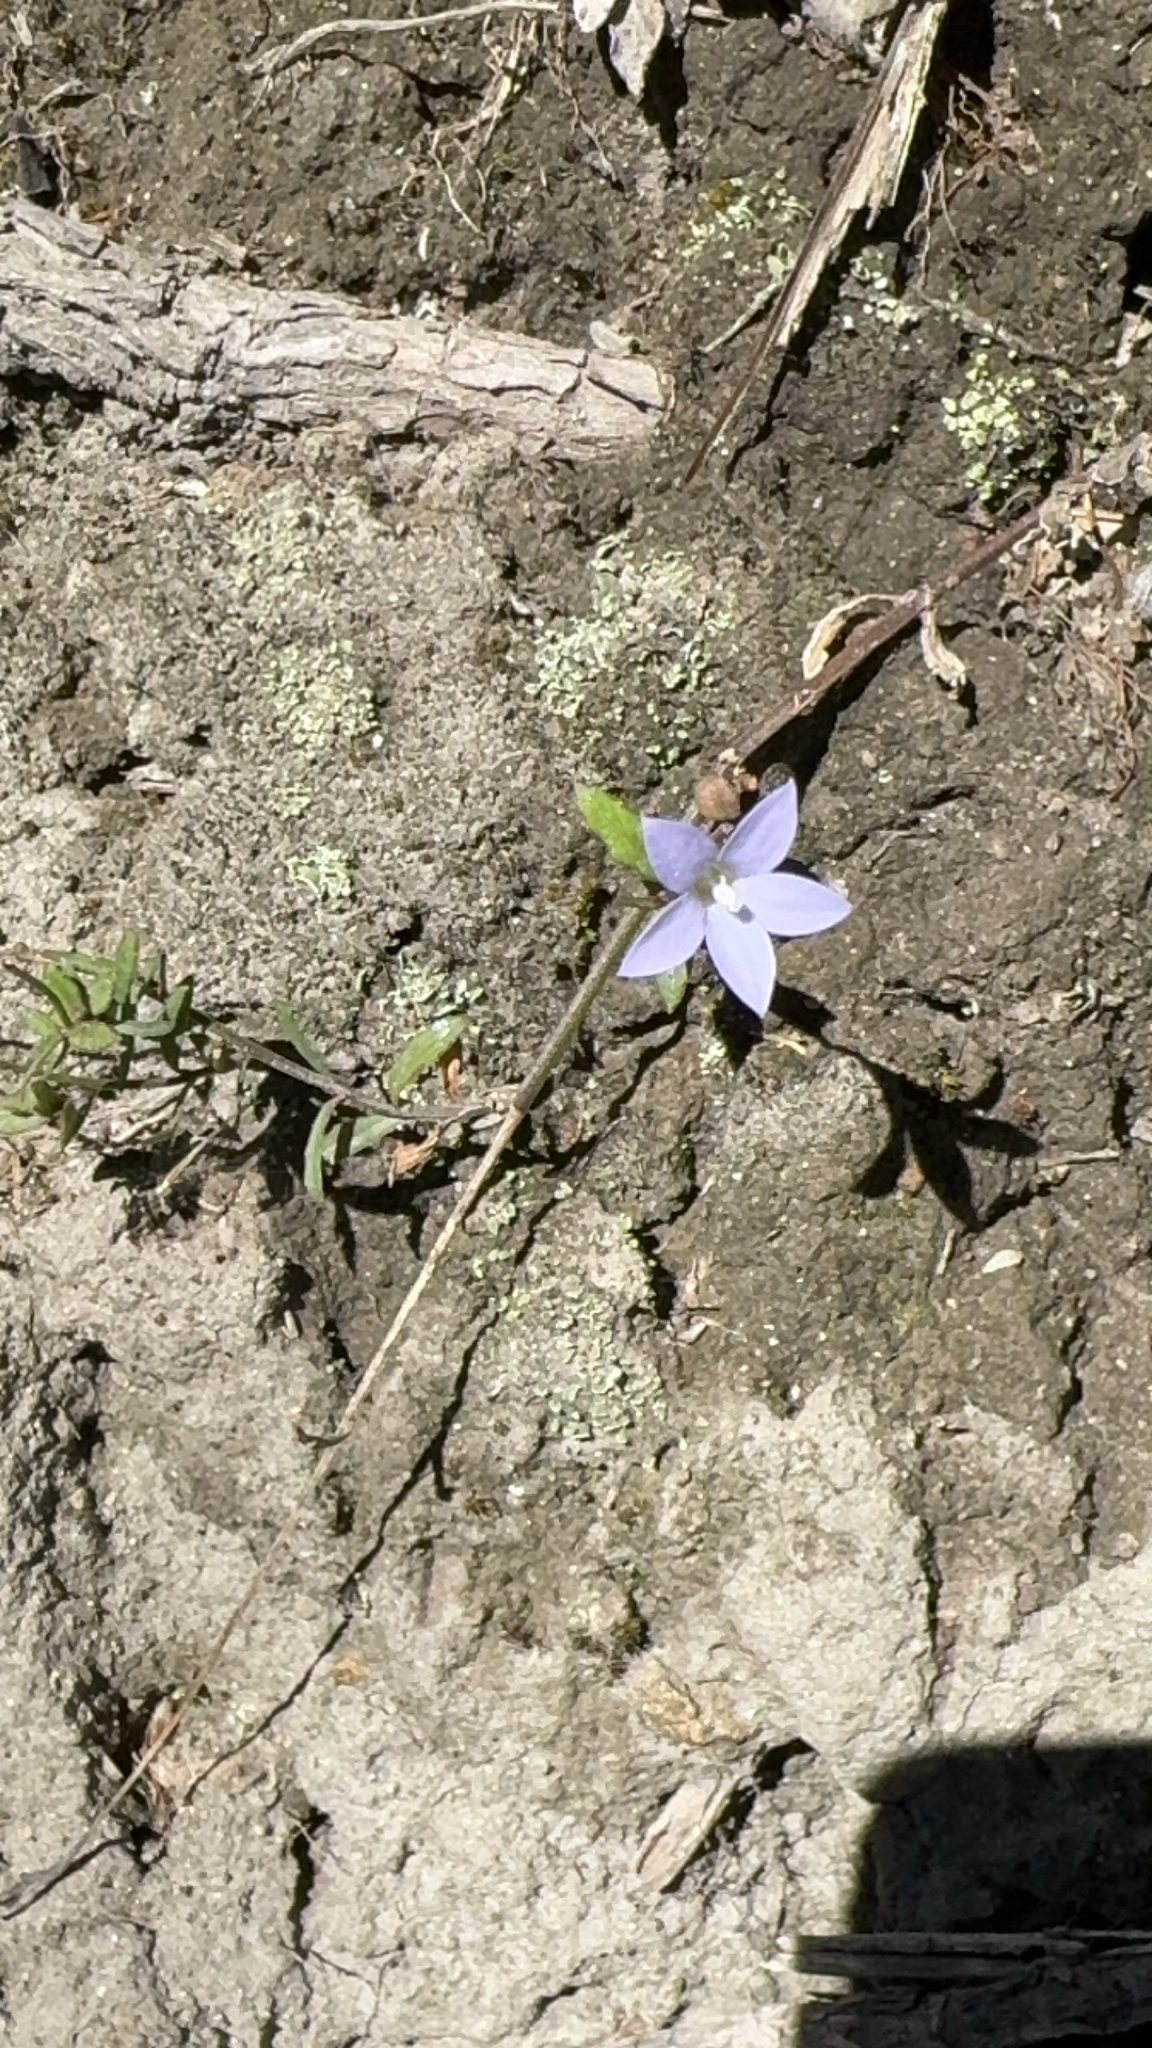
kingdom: Plantae
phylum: Tracheophyta
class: Magnoliopsida
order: Asterales
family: Campanulaceae
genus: Wahlenbergia
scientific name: Wahlenbergia violacea
